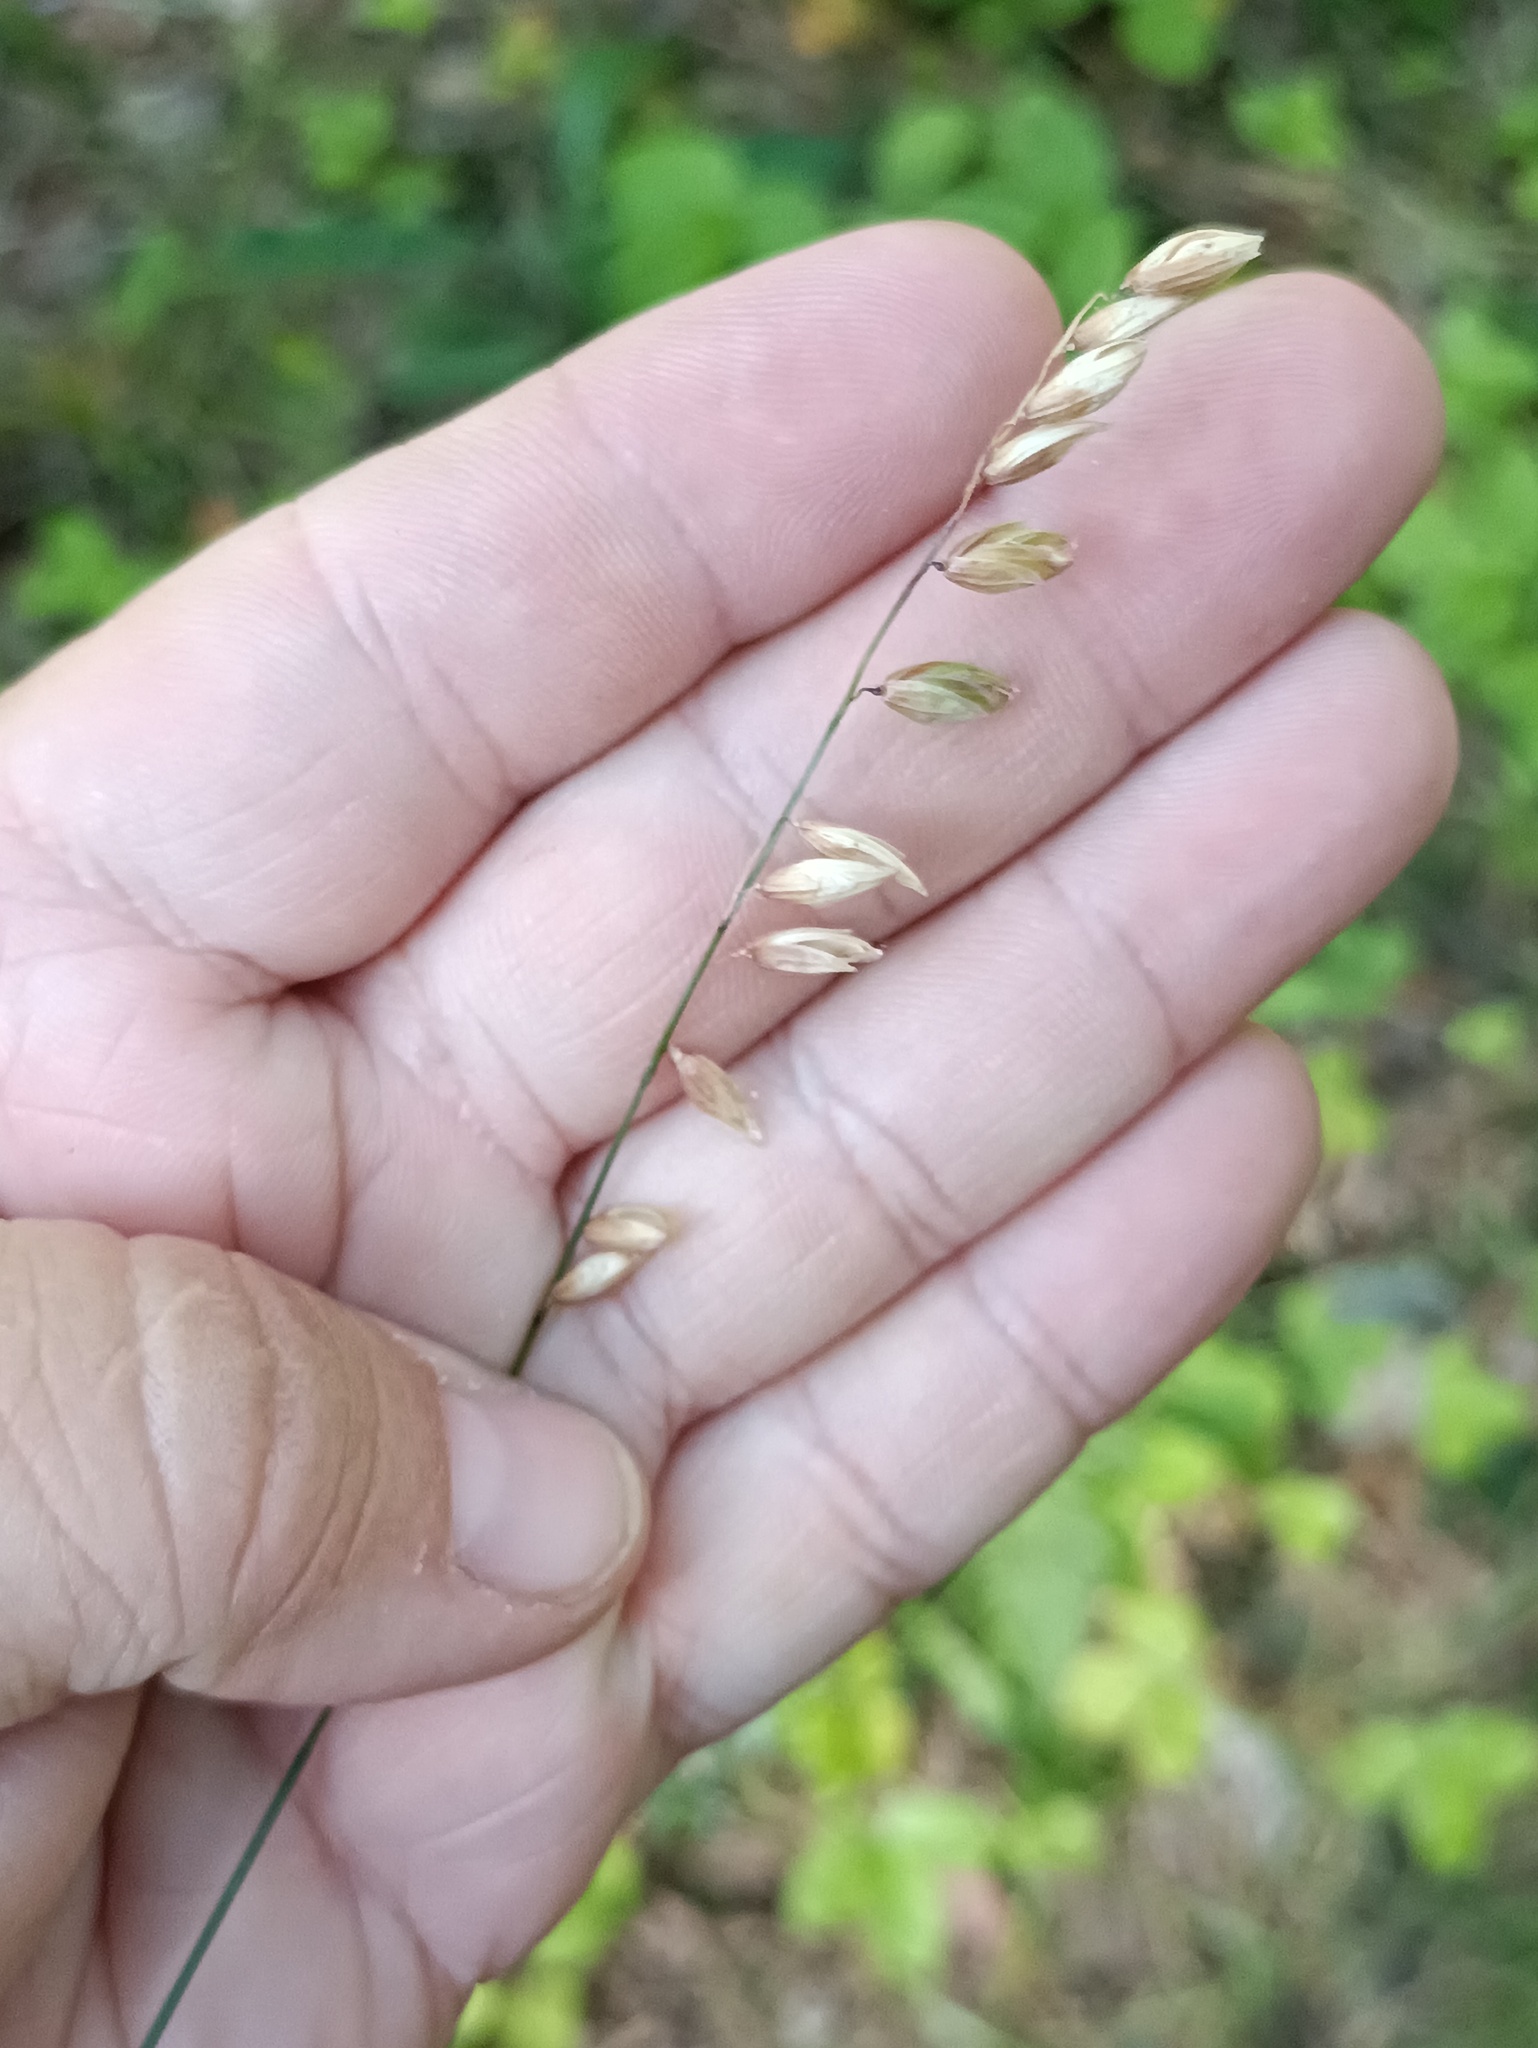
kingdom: Plantae
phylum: Tracheophyta
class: Liliopsida
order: Poales
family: Poaceae
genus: Melica
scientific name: Melica nutans
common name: Mountain melick
